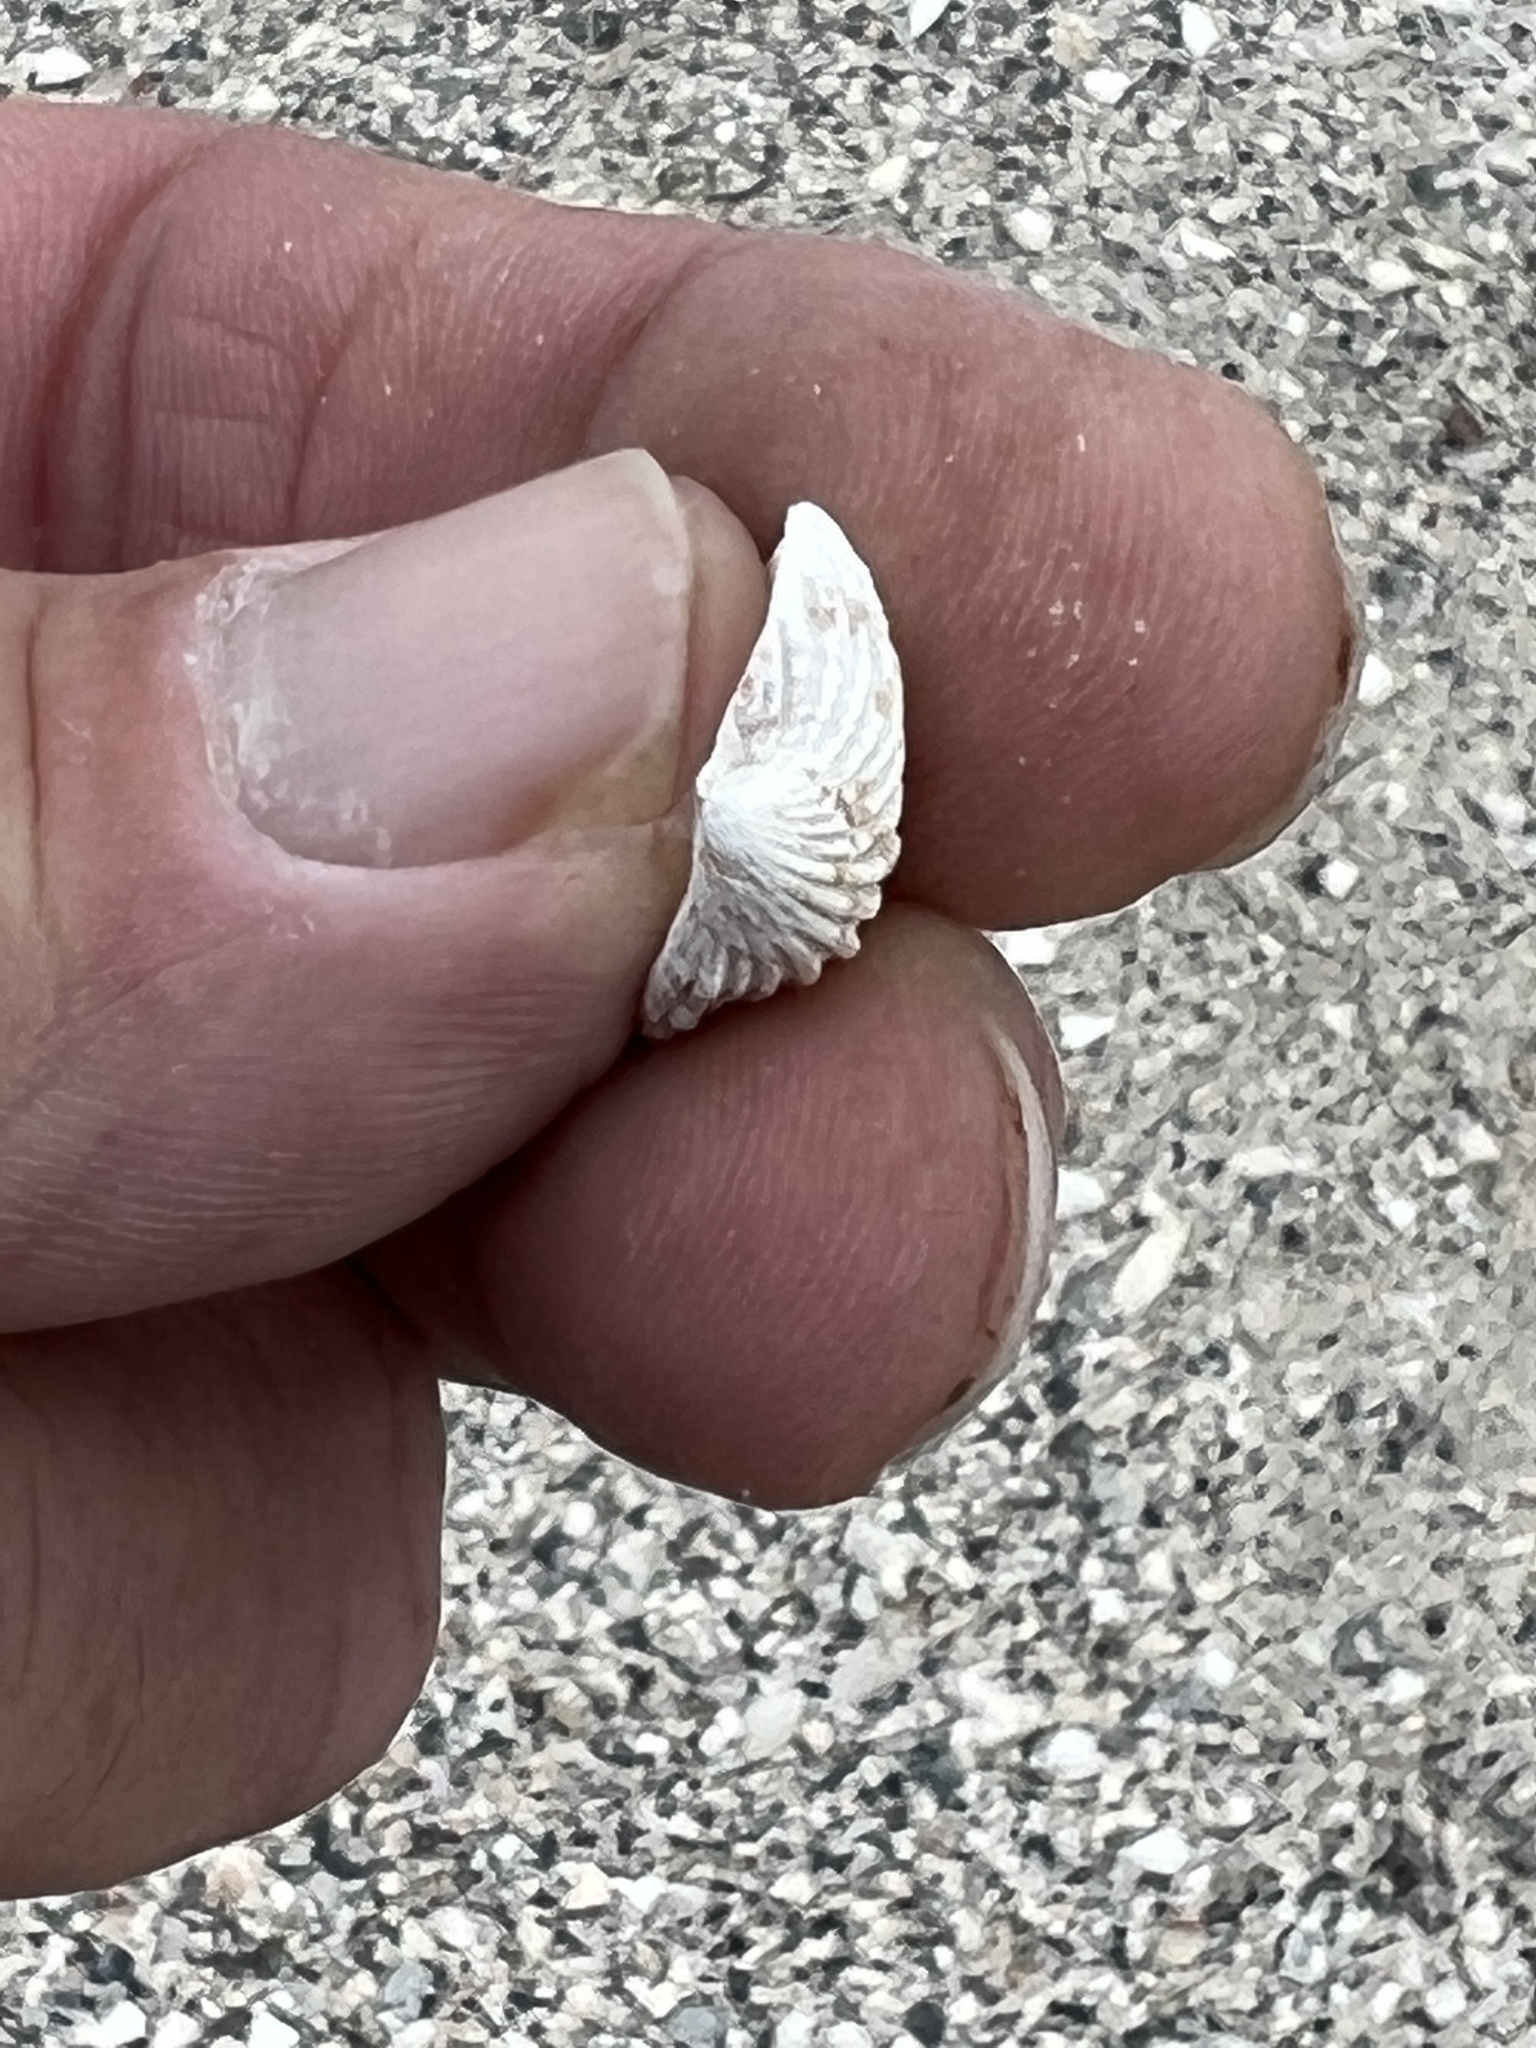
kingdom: Animalia
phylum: Mollusca
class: Bivalvia
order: Carditida
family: Carditidae
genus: Cardites
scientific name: Cardites floridanus
